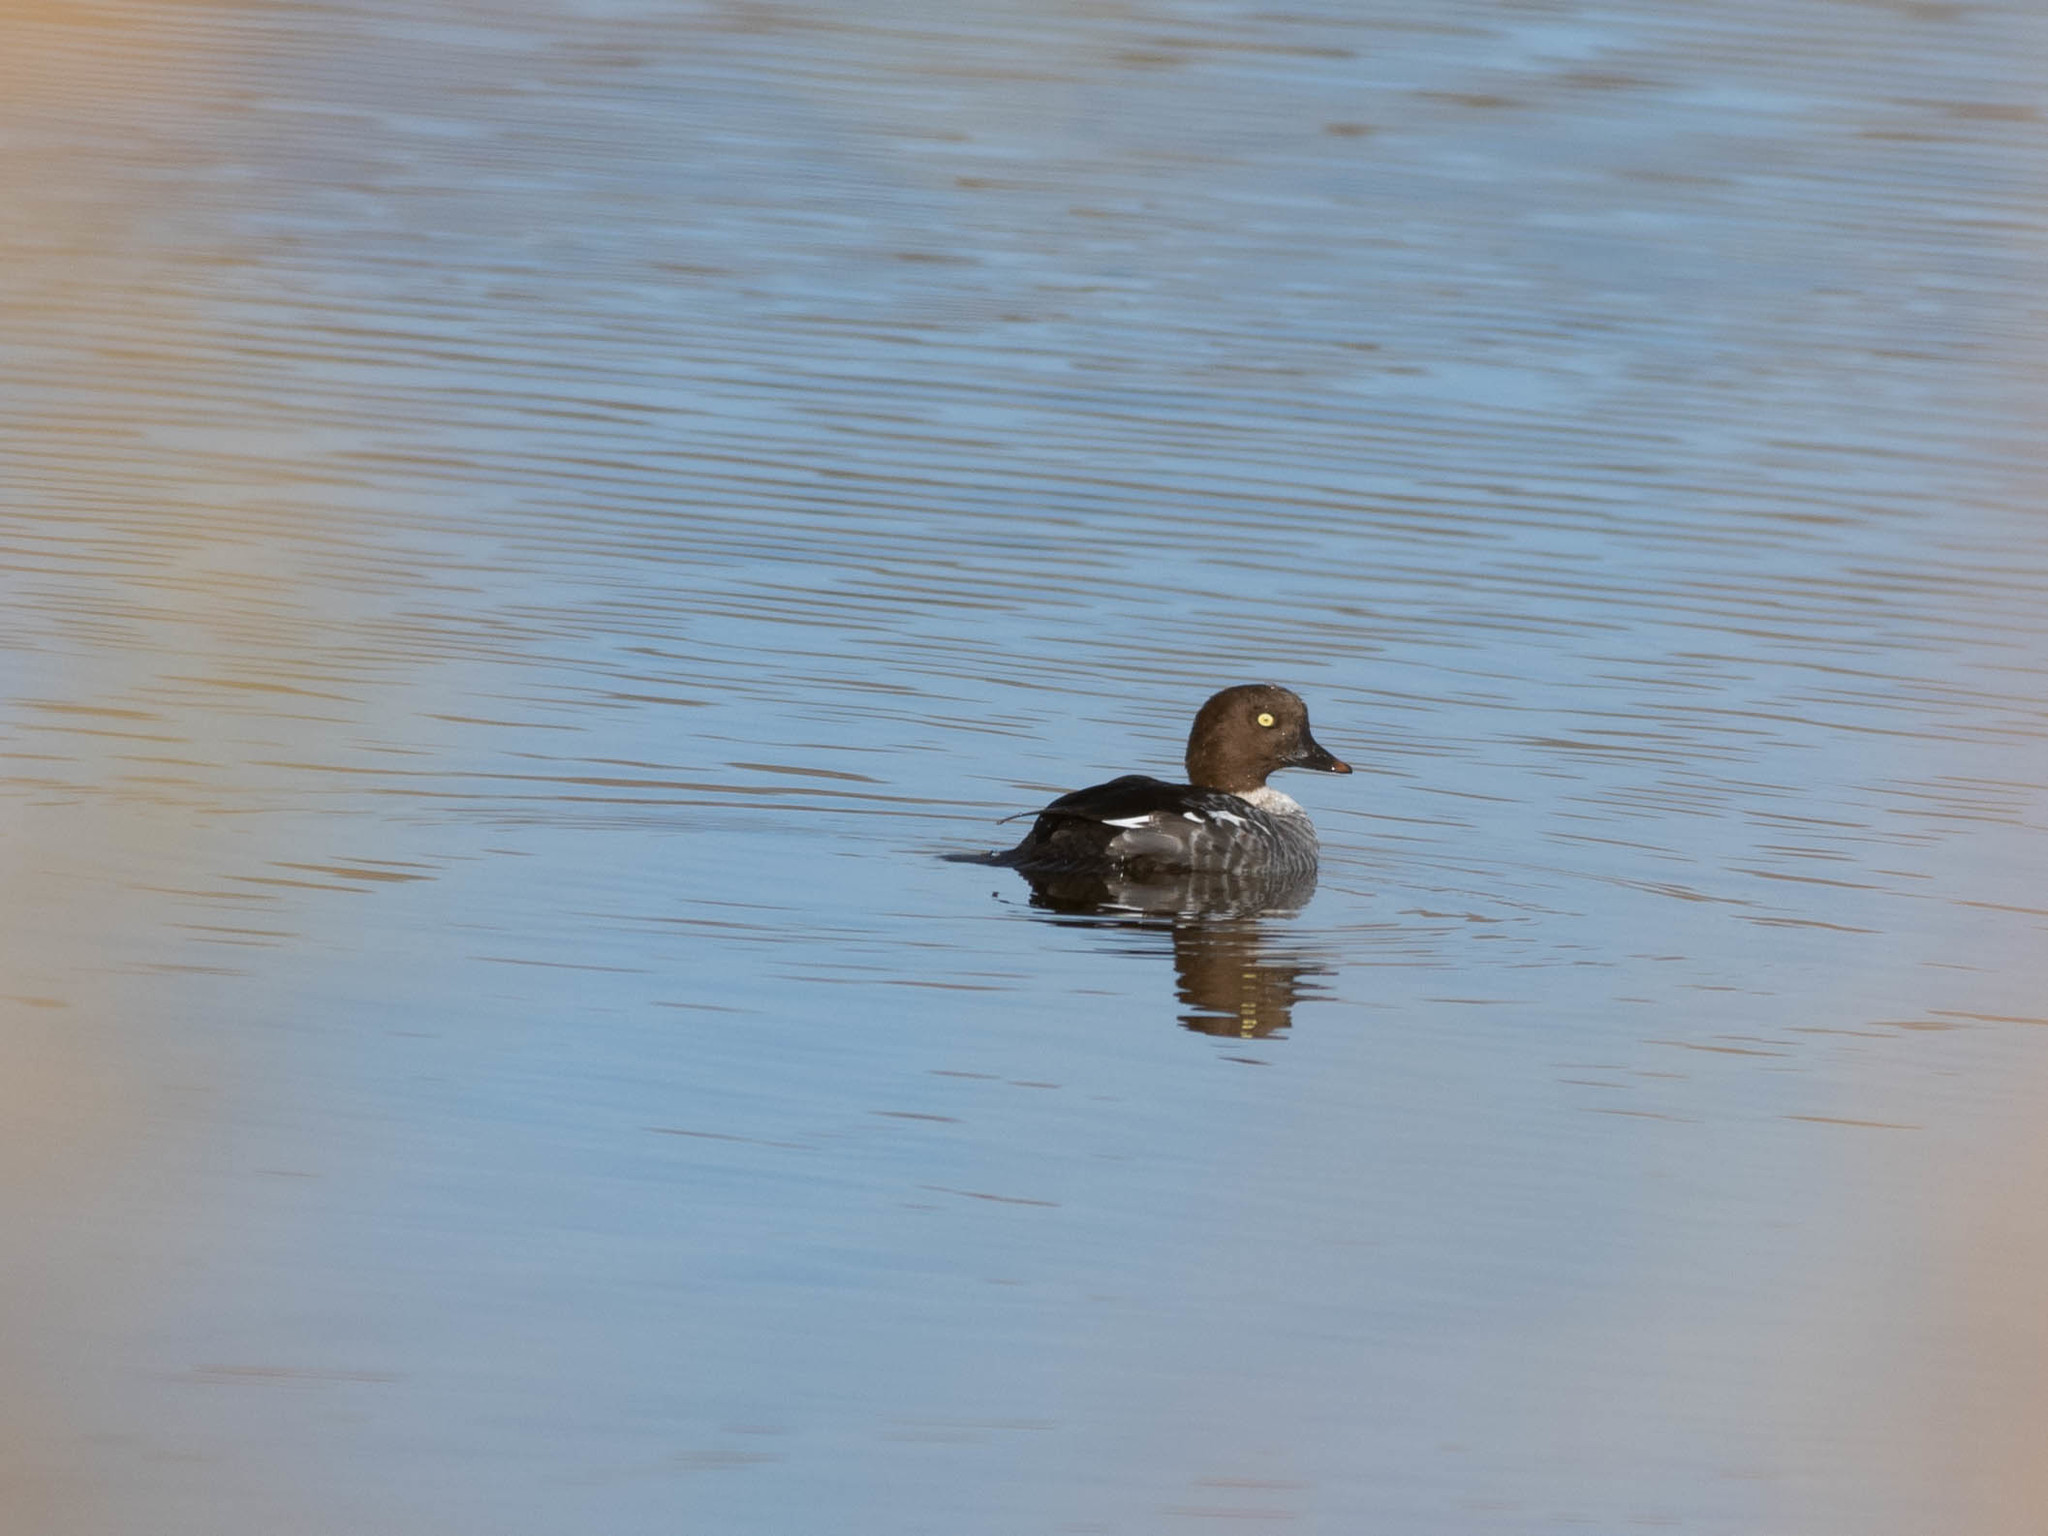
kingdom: Animalia
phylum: Chordata
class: Aves
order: Anseriformes
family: Anatidae
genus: Bucephala
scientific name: Bucephala clangula
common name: Common goldeneye
